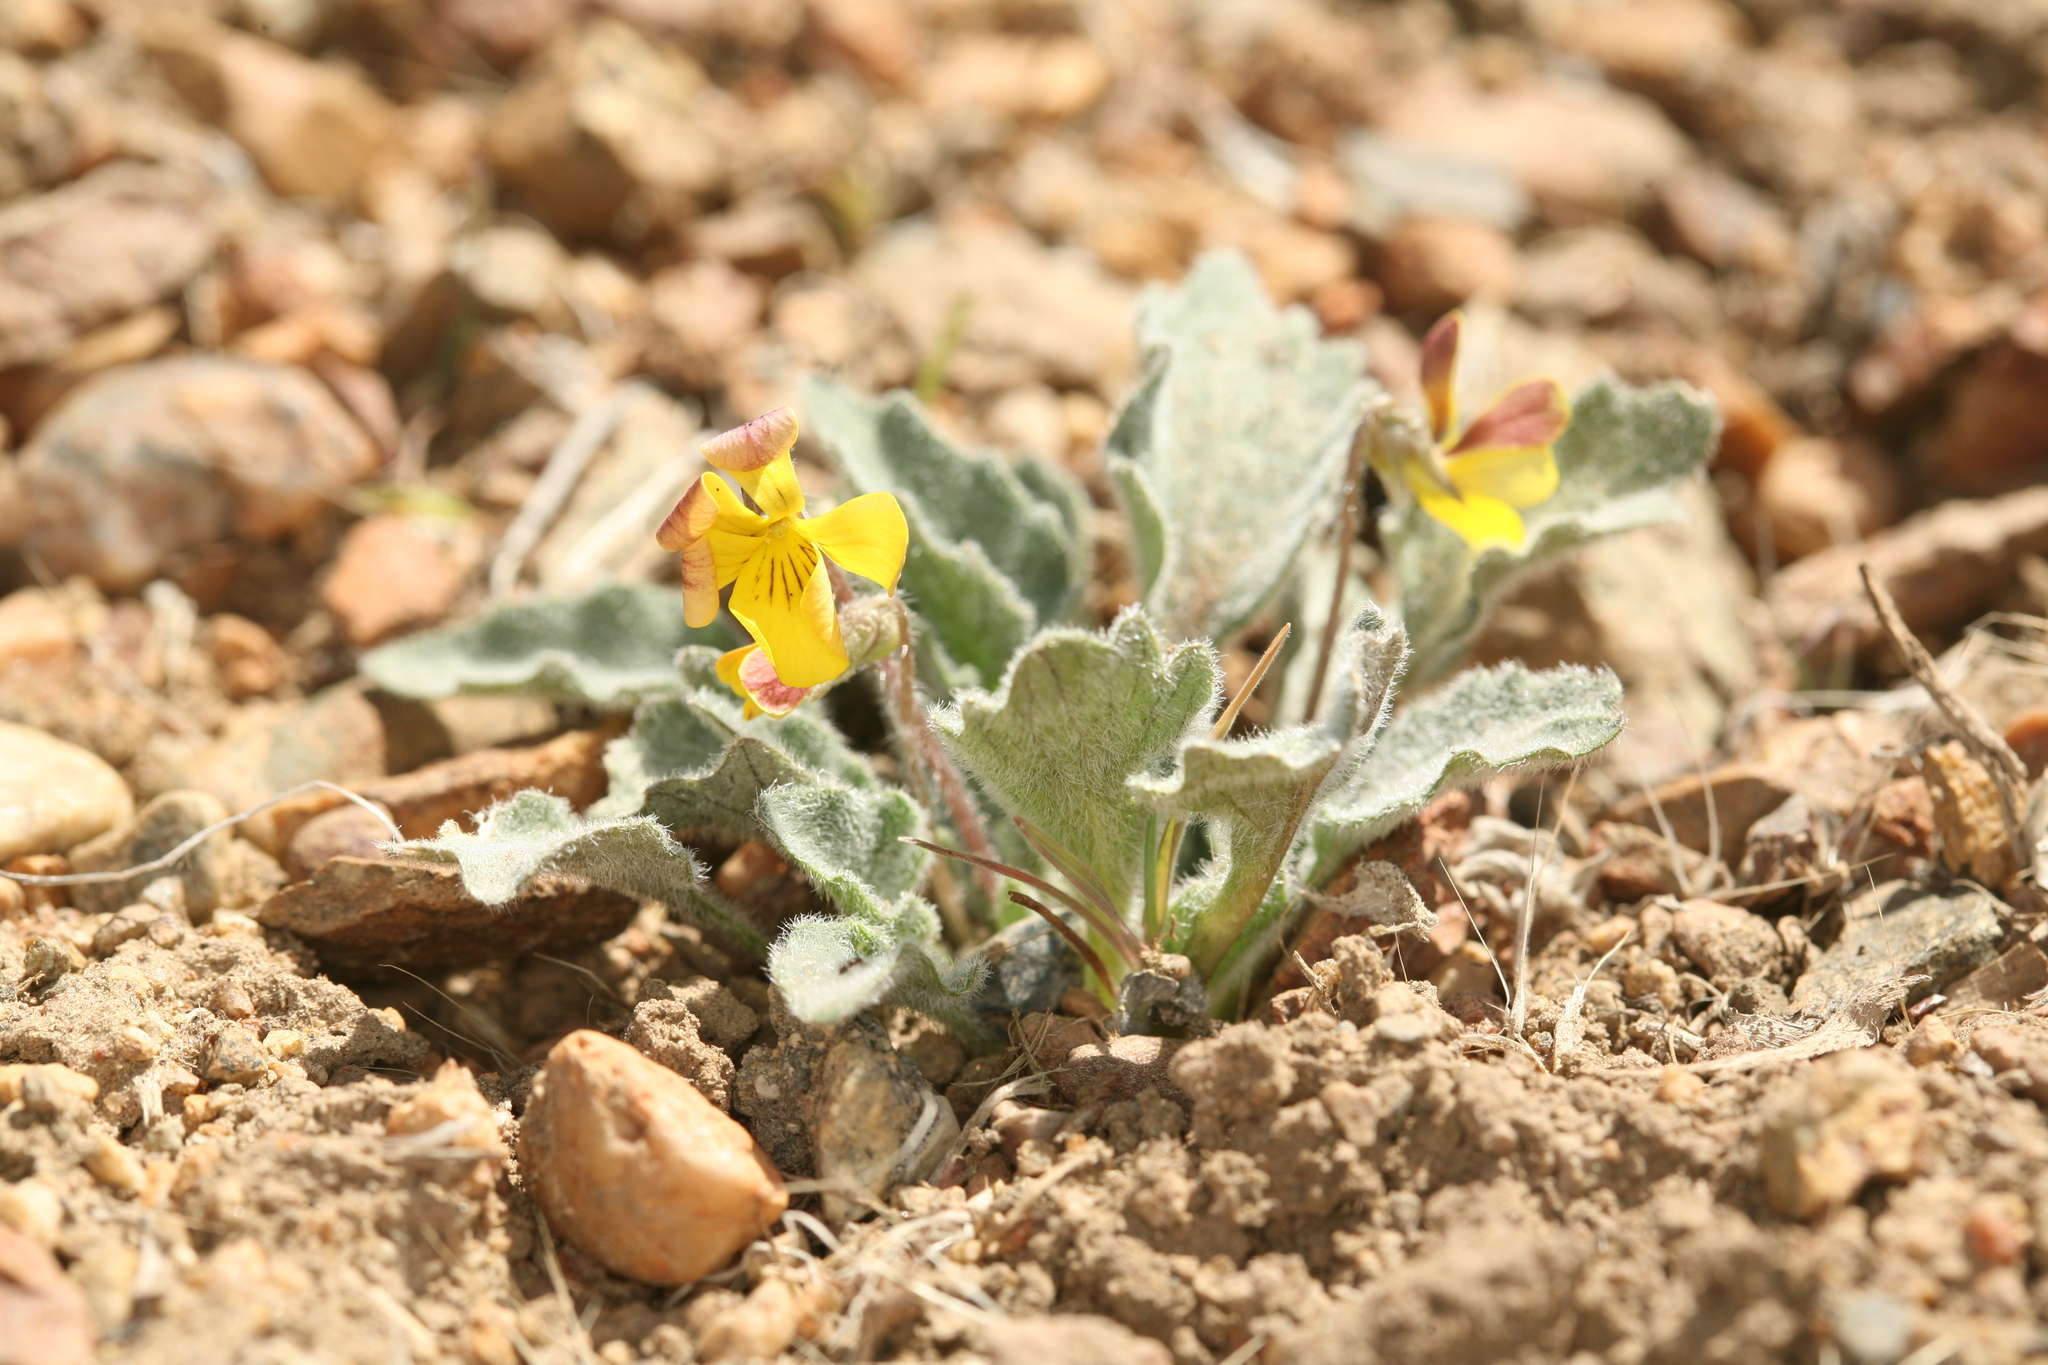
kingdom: Plantae
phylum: Tracheophyta
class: Magnoliopsida
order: Malpighiales
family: Violaceae
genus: Viola
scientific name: Viola aurea
